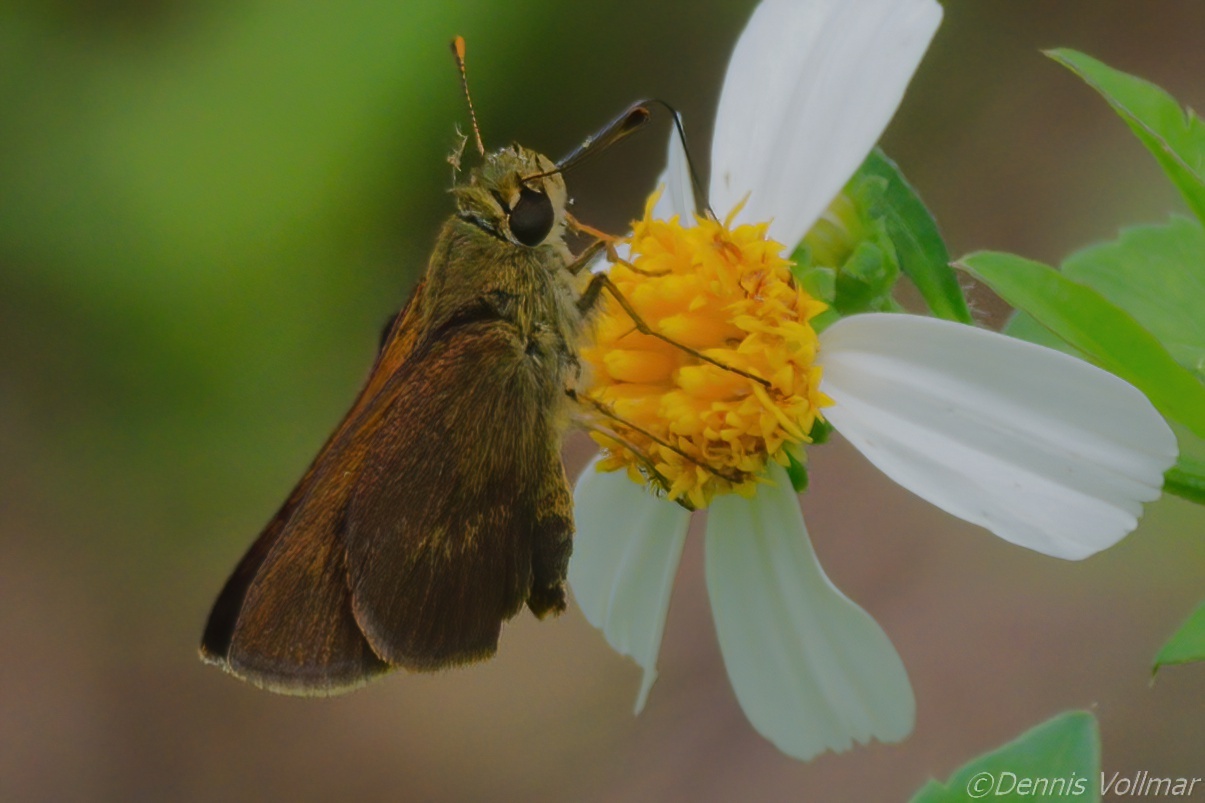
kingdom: Animalia
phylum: Arthropoda
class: Insecta
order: Lepidoptera
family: Hesperiidae
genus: Polites
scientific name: Polites egeremet
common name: Northern broken-dash
